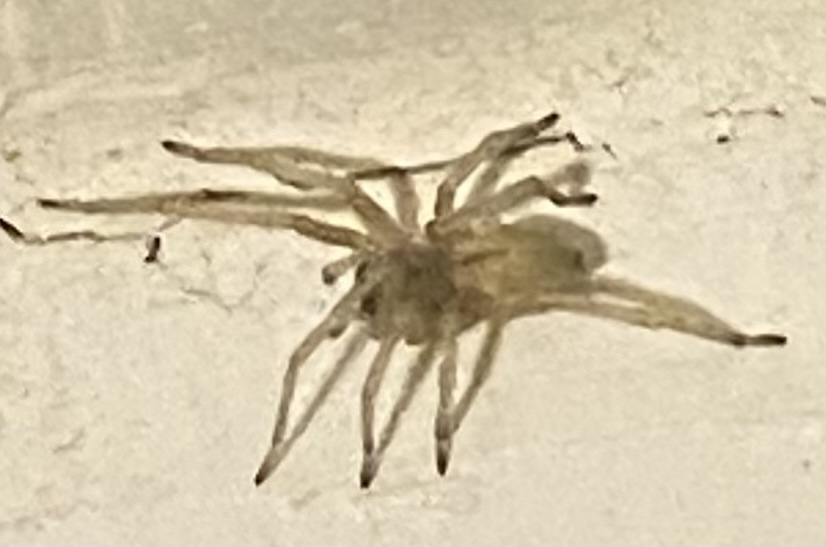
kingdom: Animalia
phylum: Arthropoda
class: Arachnida
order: Araneae
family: Cheiracanthiidae
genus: Cheiracanthium
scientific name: Cheiracanthium mildei
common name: Northern yellow sac spider
